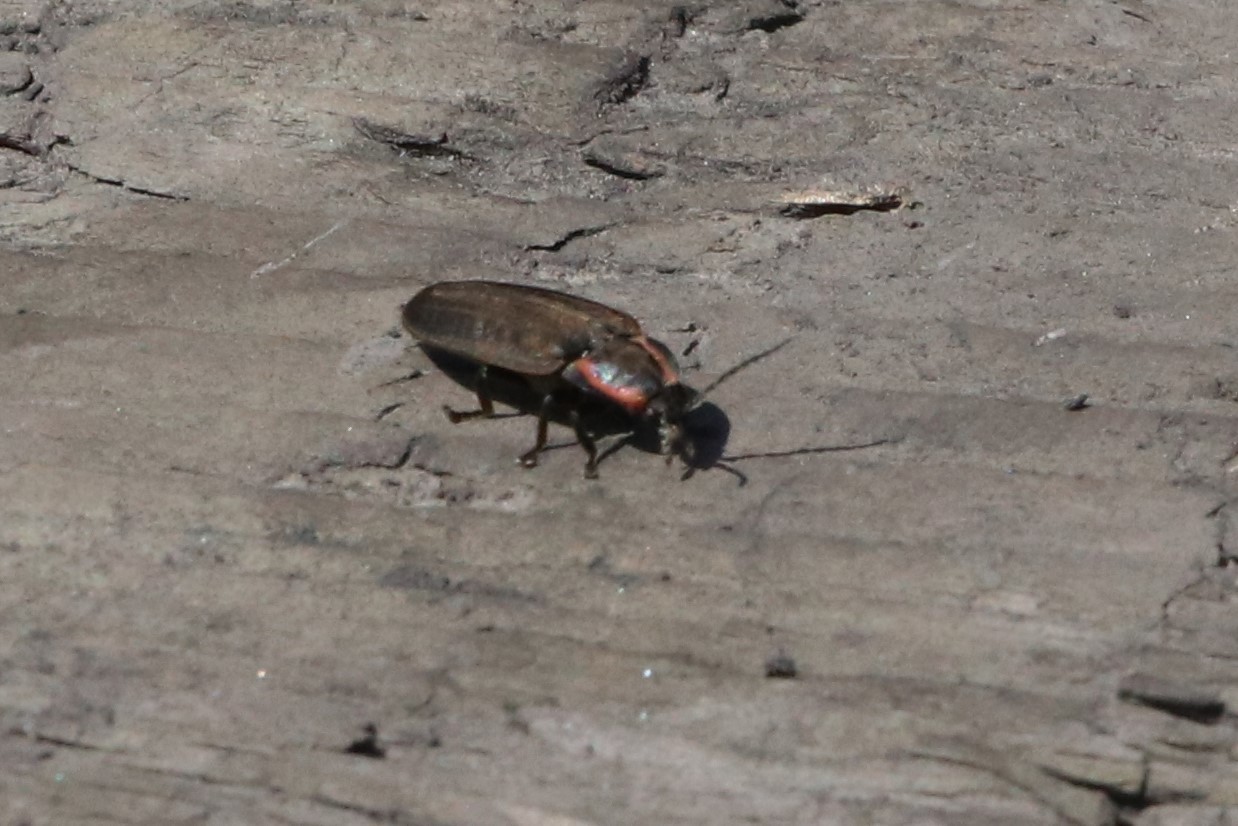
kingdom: Animalia
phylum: Arthropoda
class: Insecta
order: Coleoptera
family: Lampyridae
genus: Photinus
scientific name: Photinus corrusca
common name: Winter firefly
